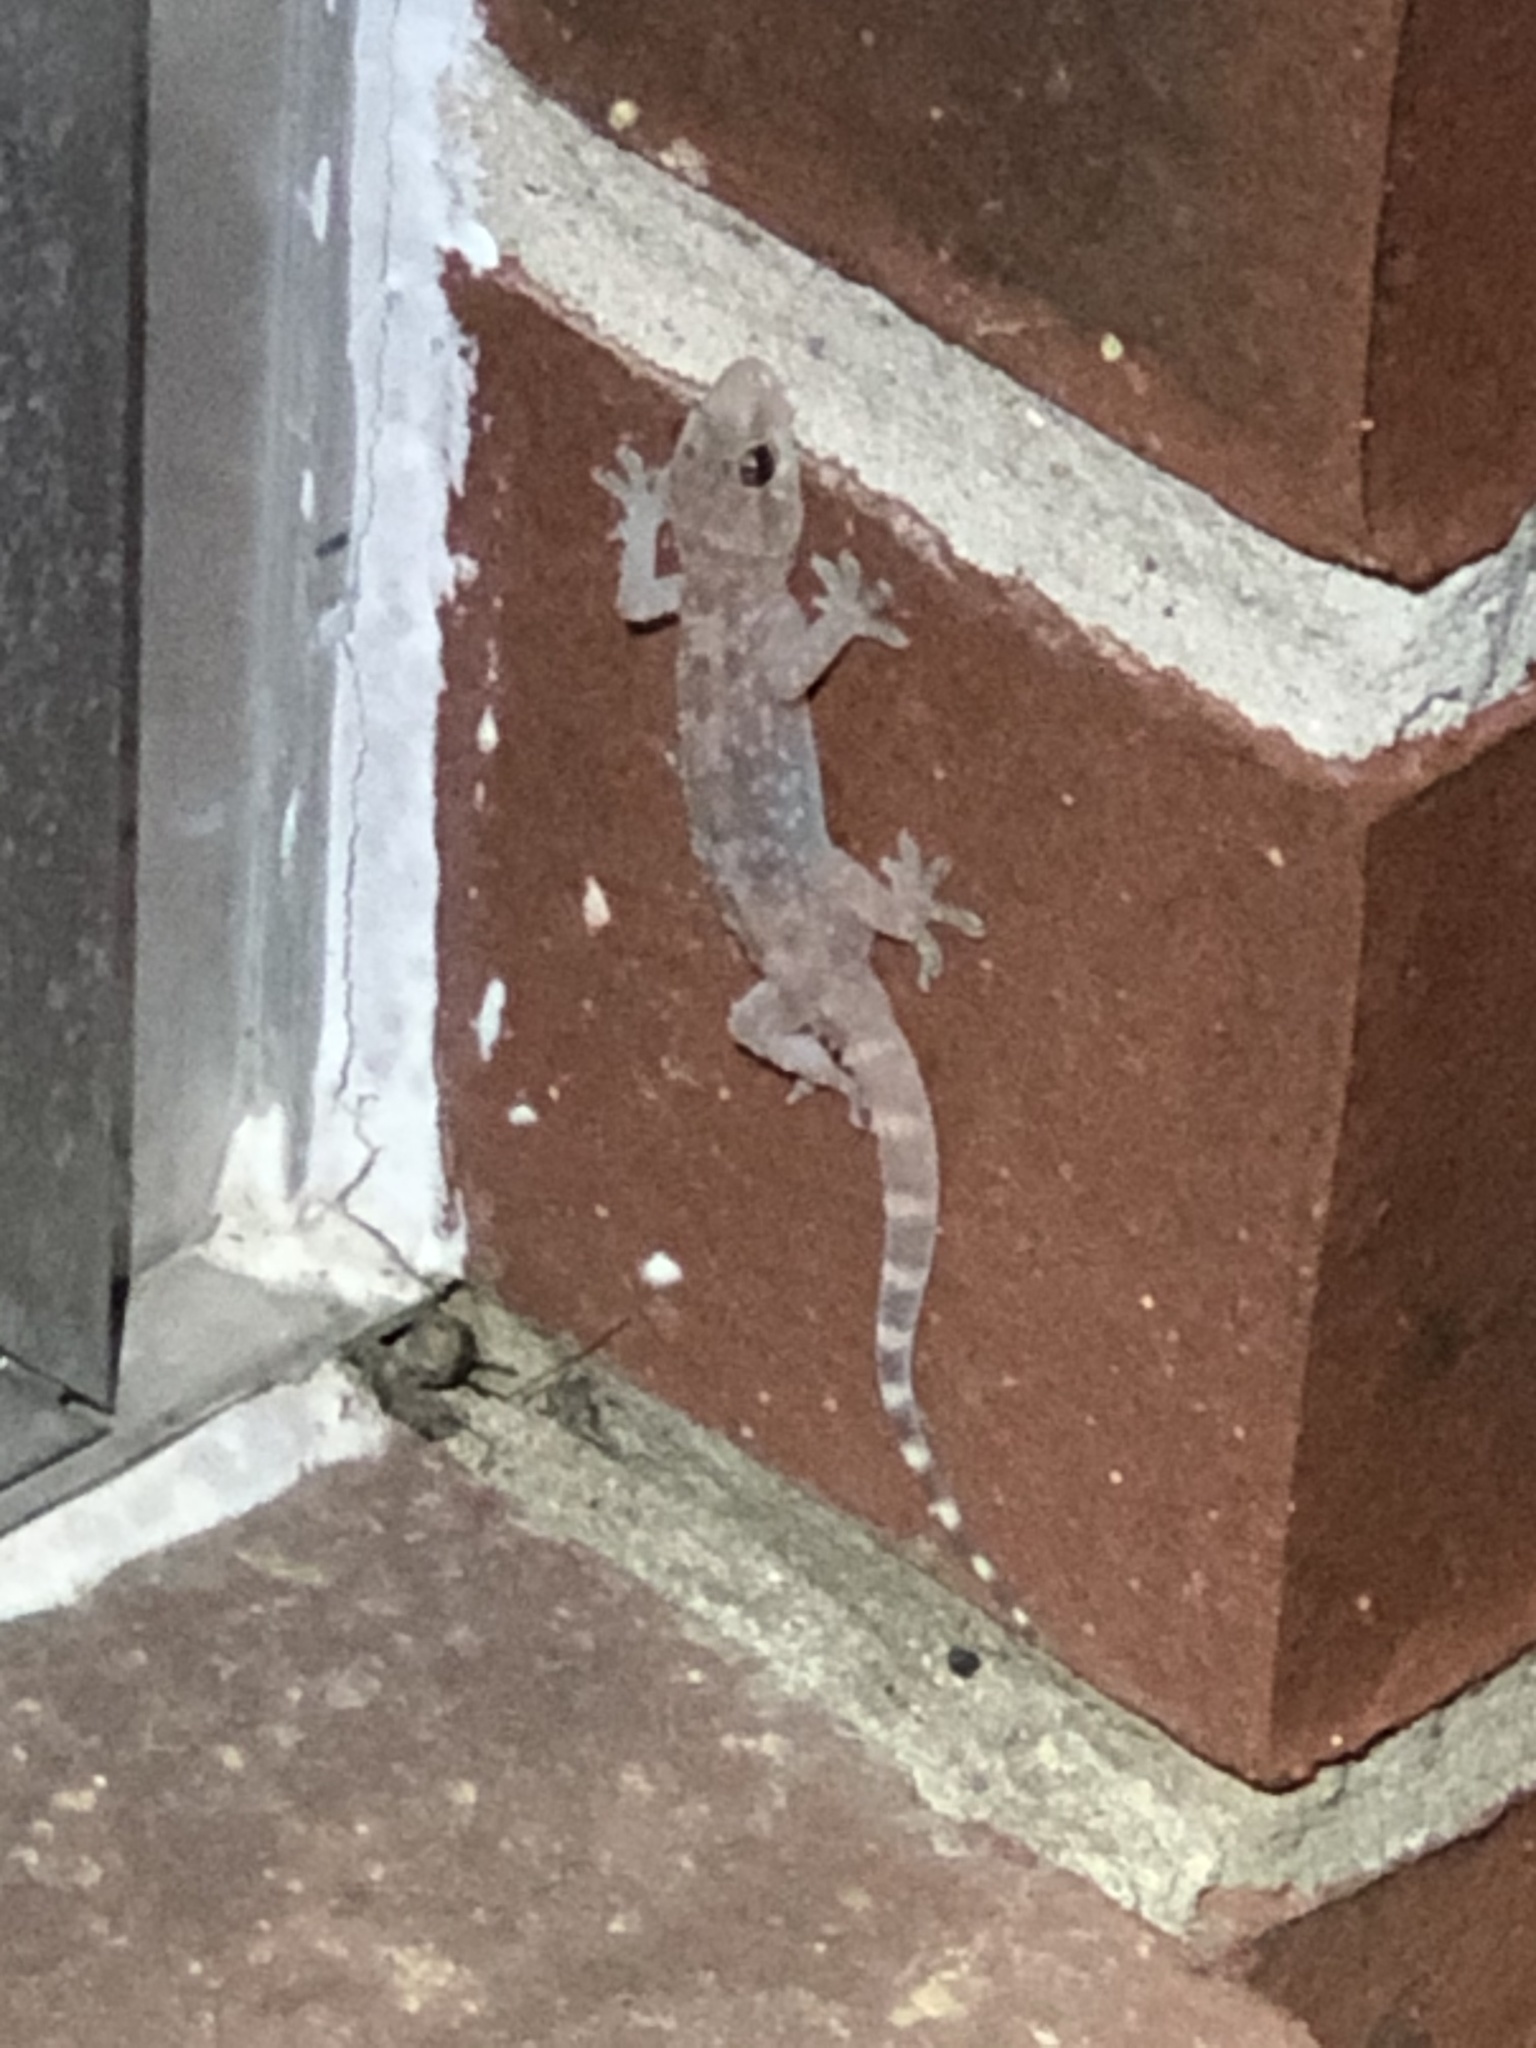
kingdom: Animalia
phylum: Chordata
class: Squamata
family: Gekkonidae
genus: Hemidactylus
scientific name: Hemidactylus turcicus
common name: Turkish gecko
